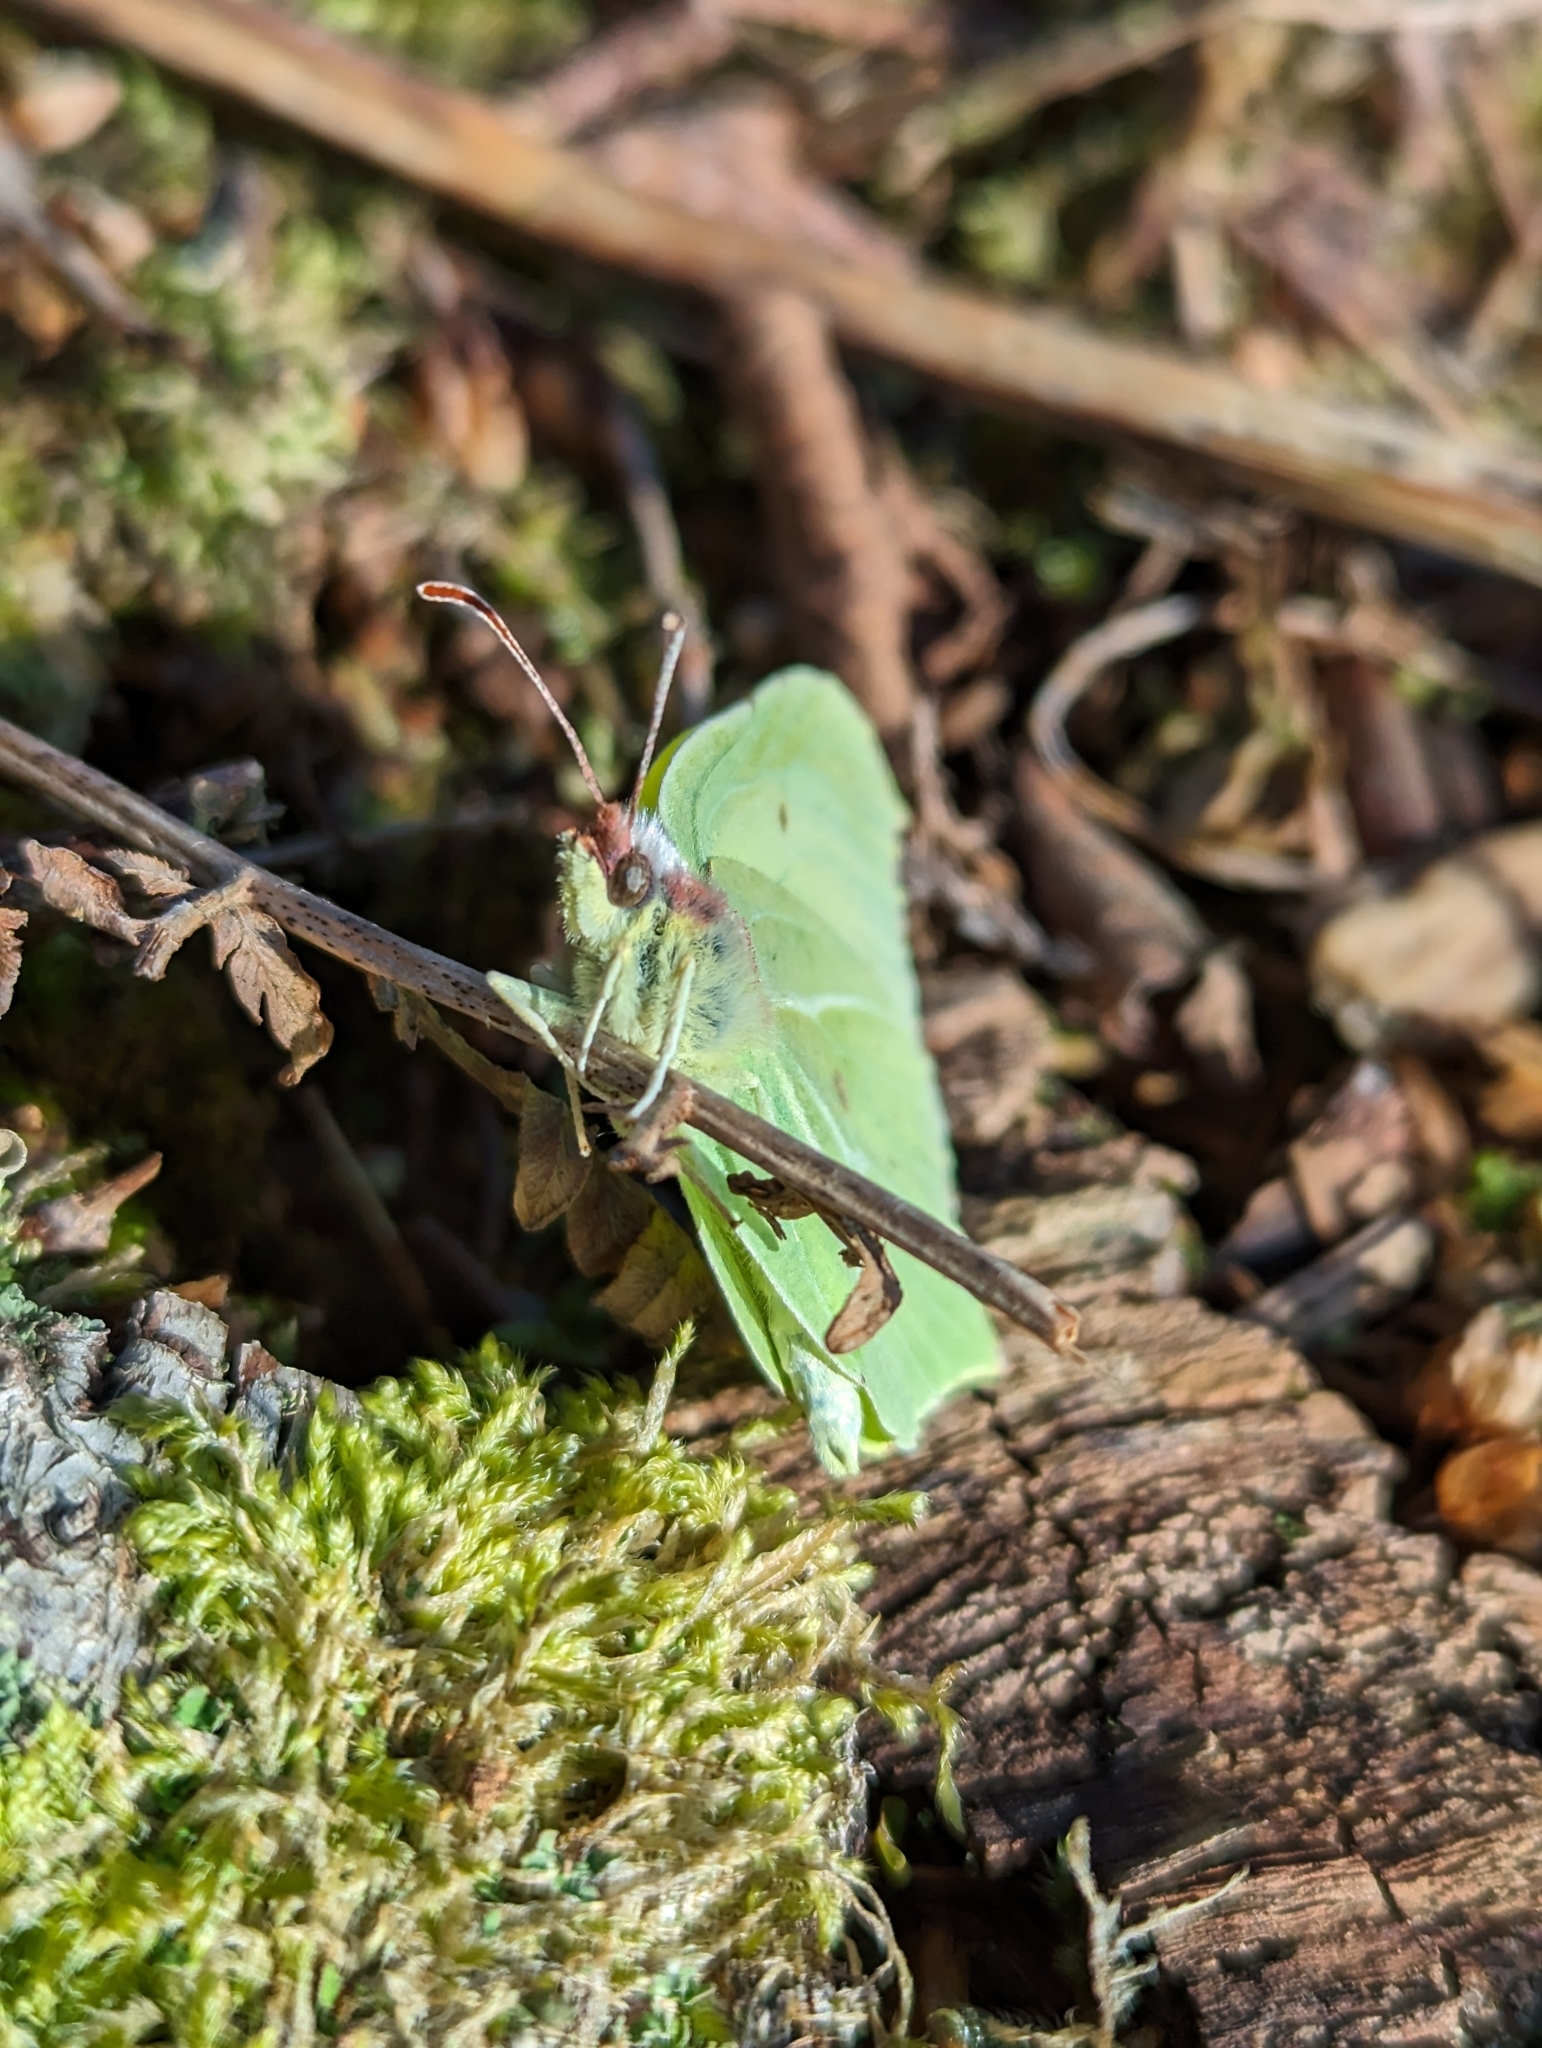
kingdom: Animalia
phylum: Arthropoda
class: Insecta
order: Lepidoptera
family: Pieridae
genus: Gonepteryx
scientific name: Gonepteryx rhamni
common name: Brimstone
